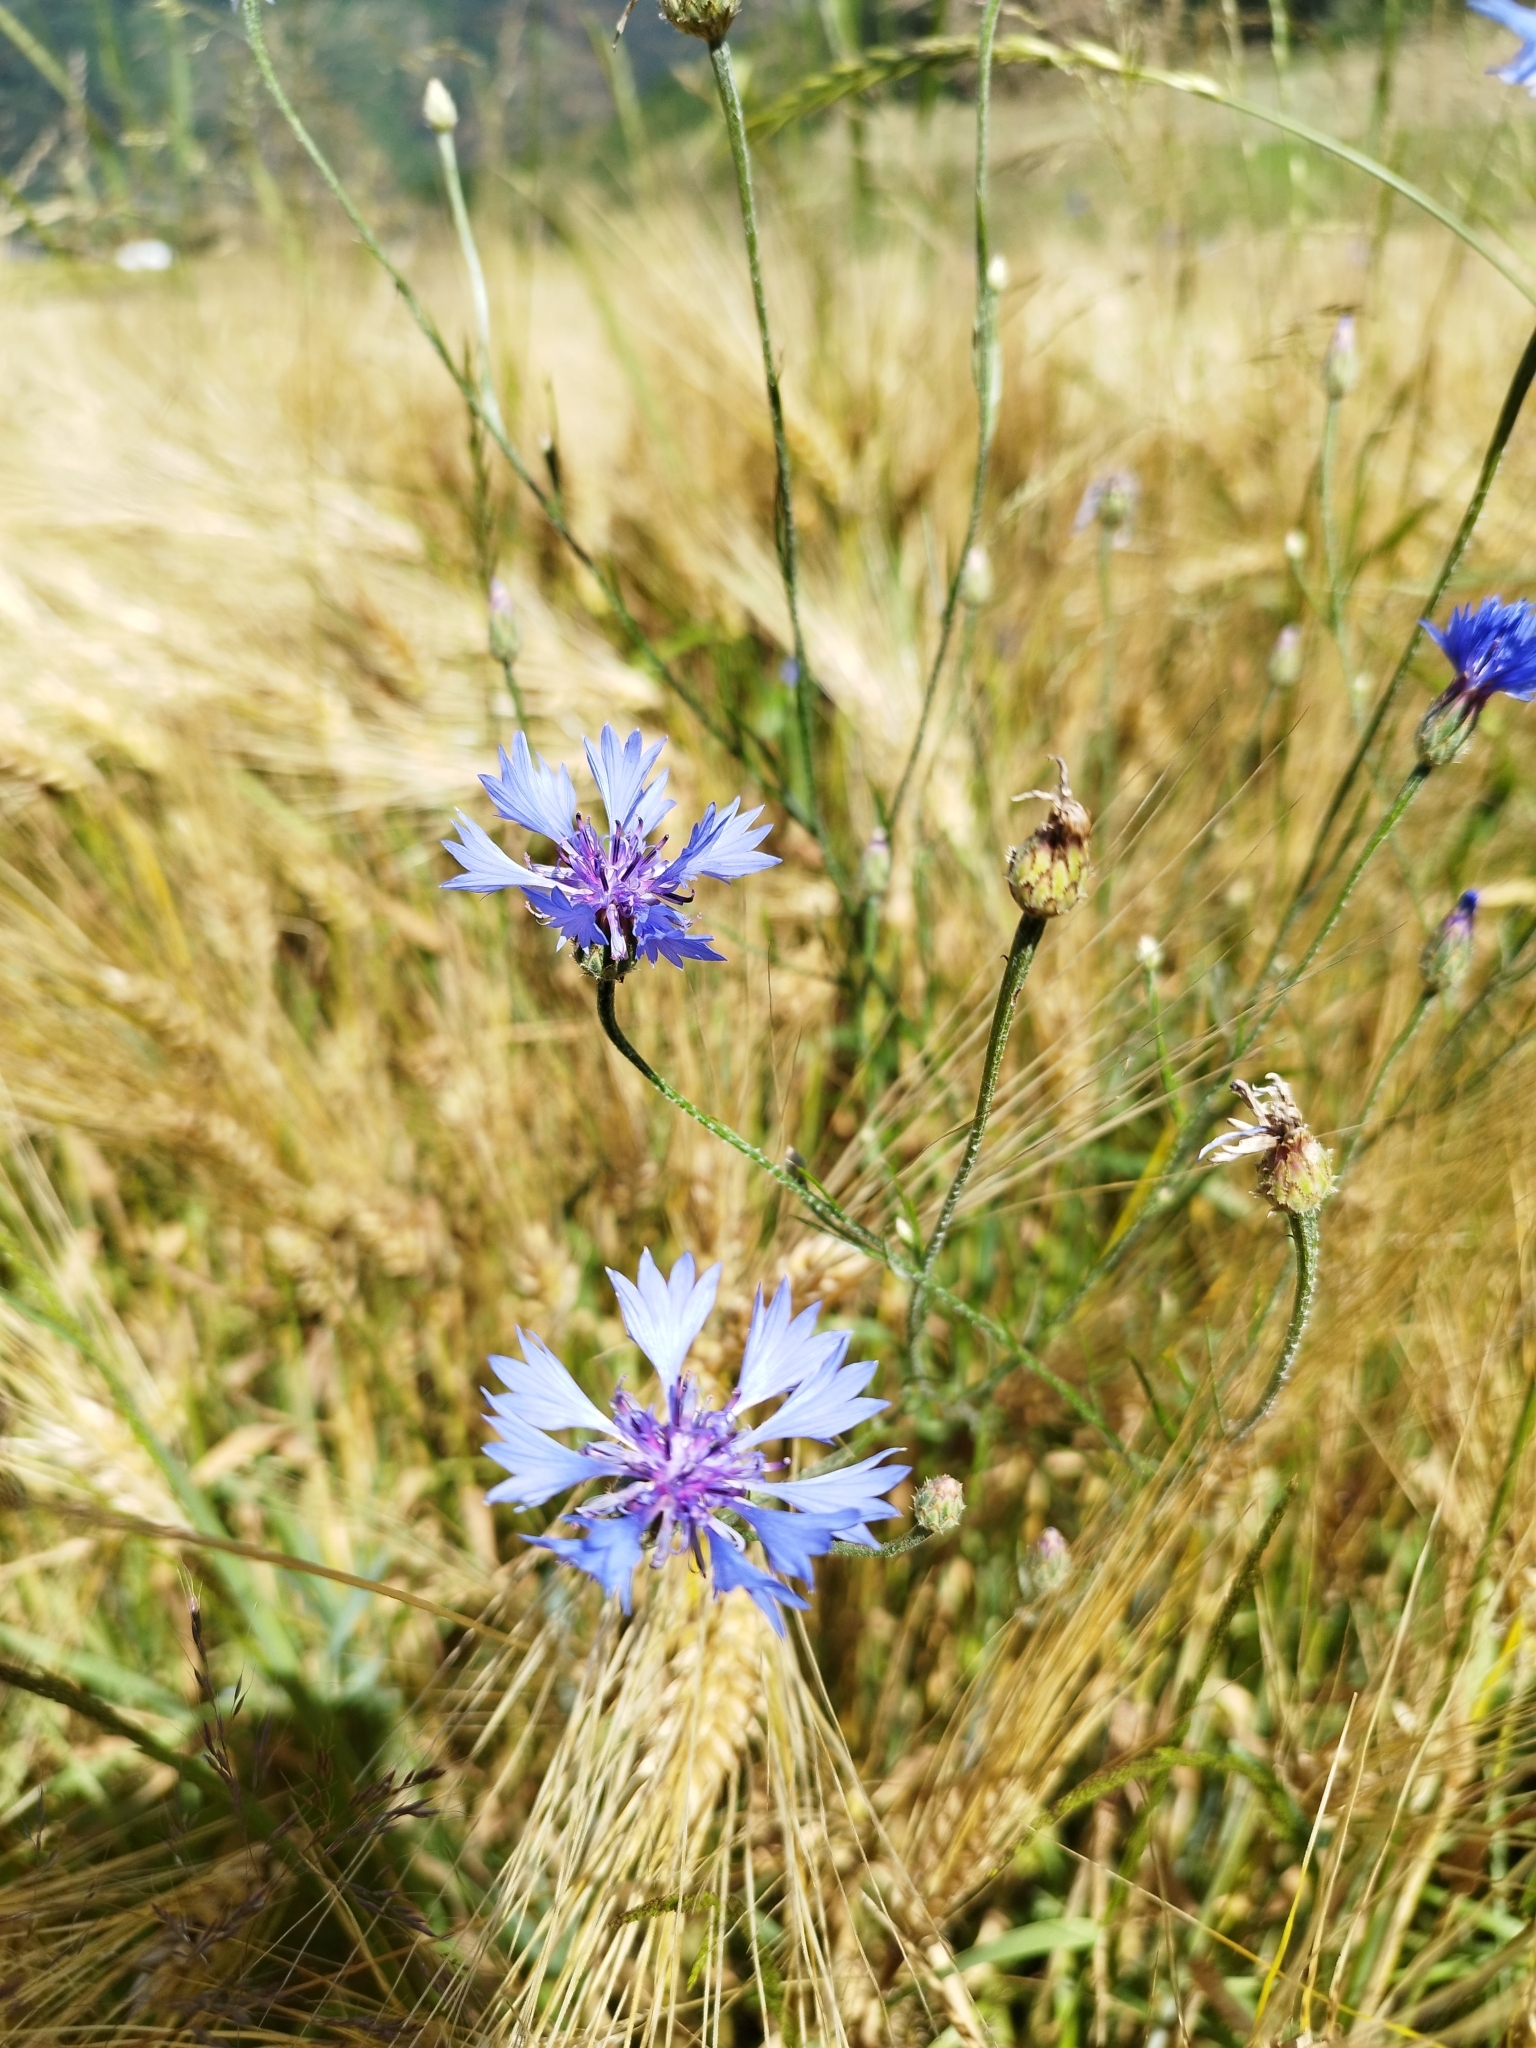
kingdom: Plantae
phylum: Tracheophyta
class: Magnoliopsida
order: Asterales
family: Asteraceae
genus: Centaurea
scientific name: Centaurea cyanus
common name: Cornflower
